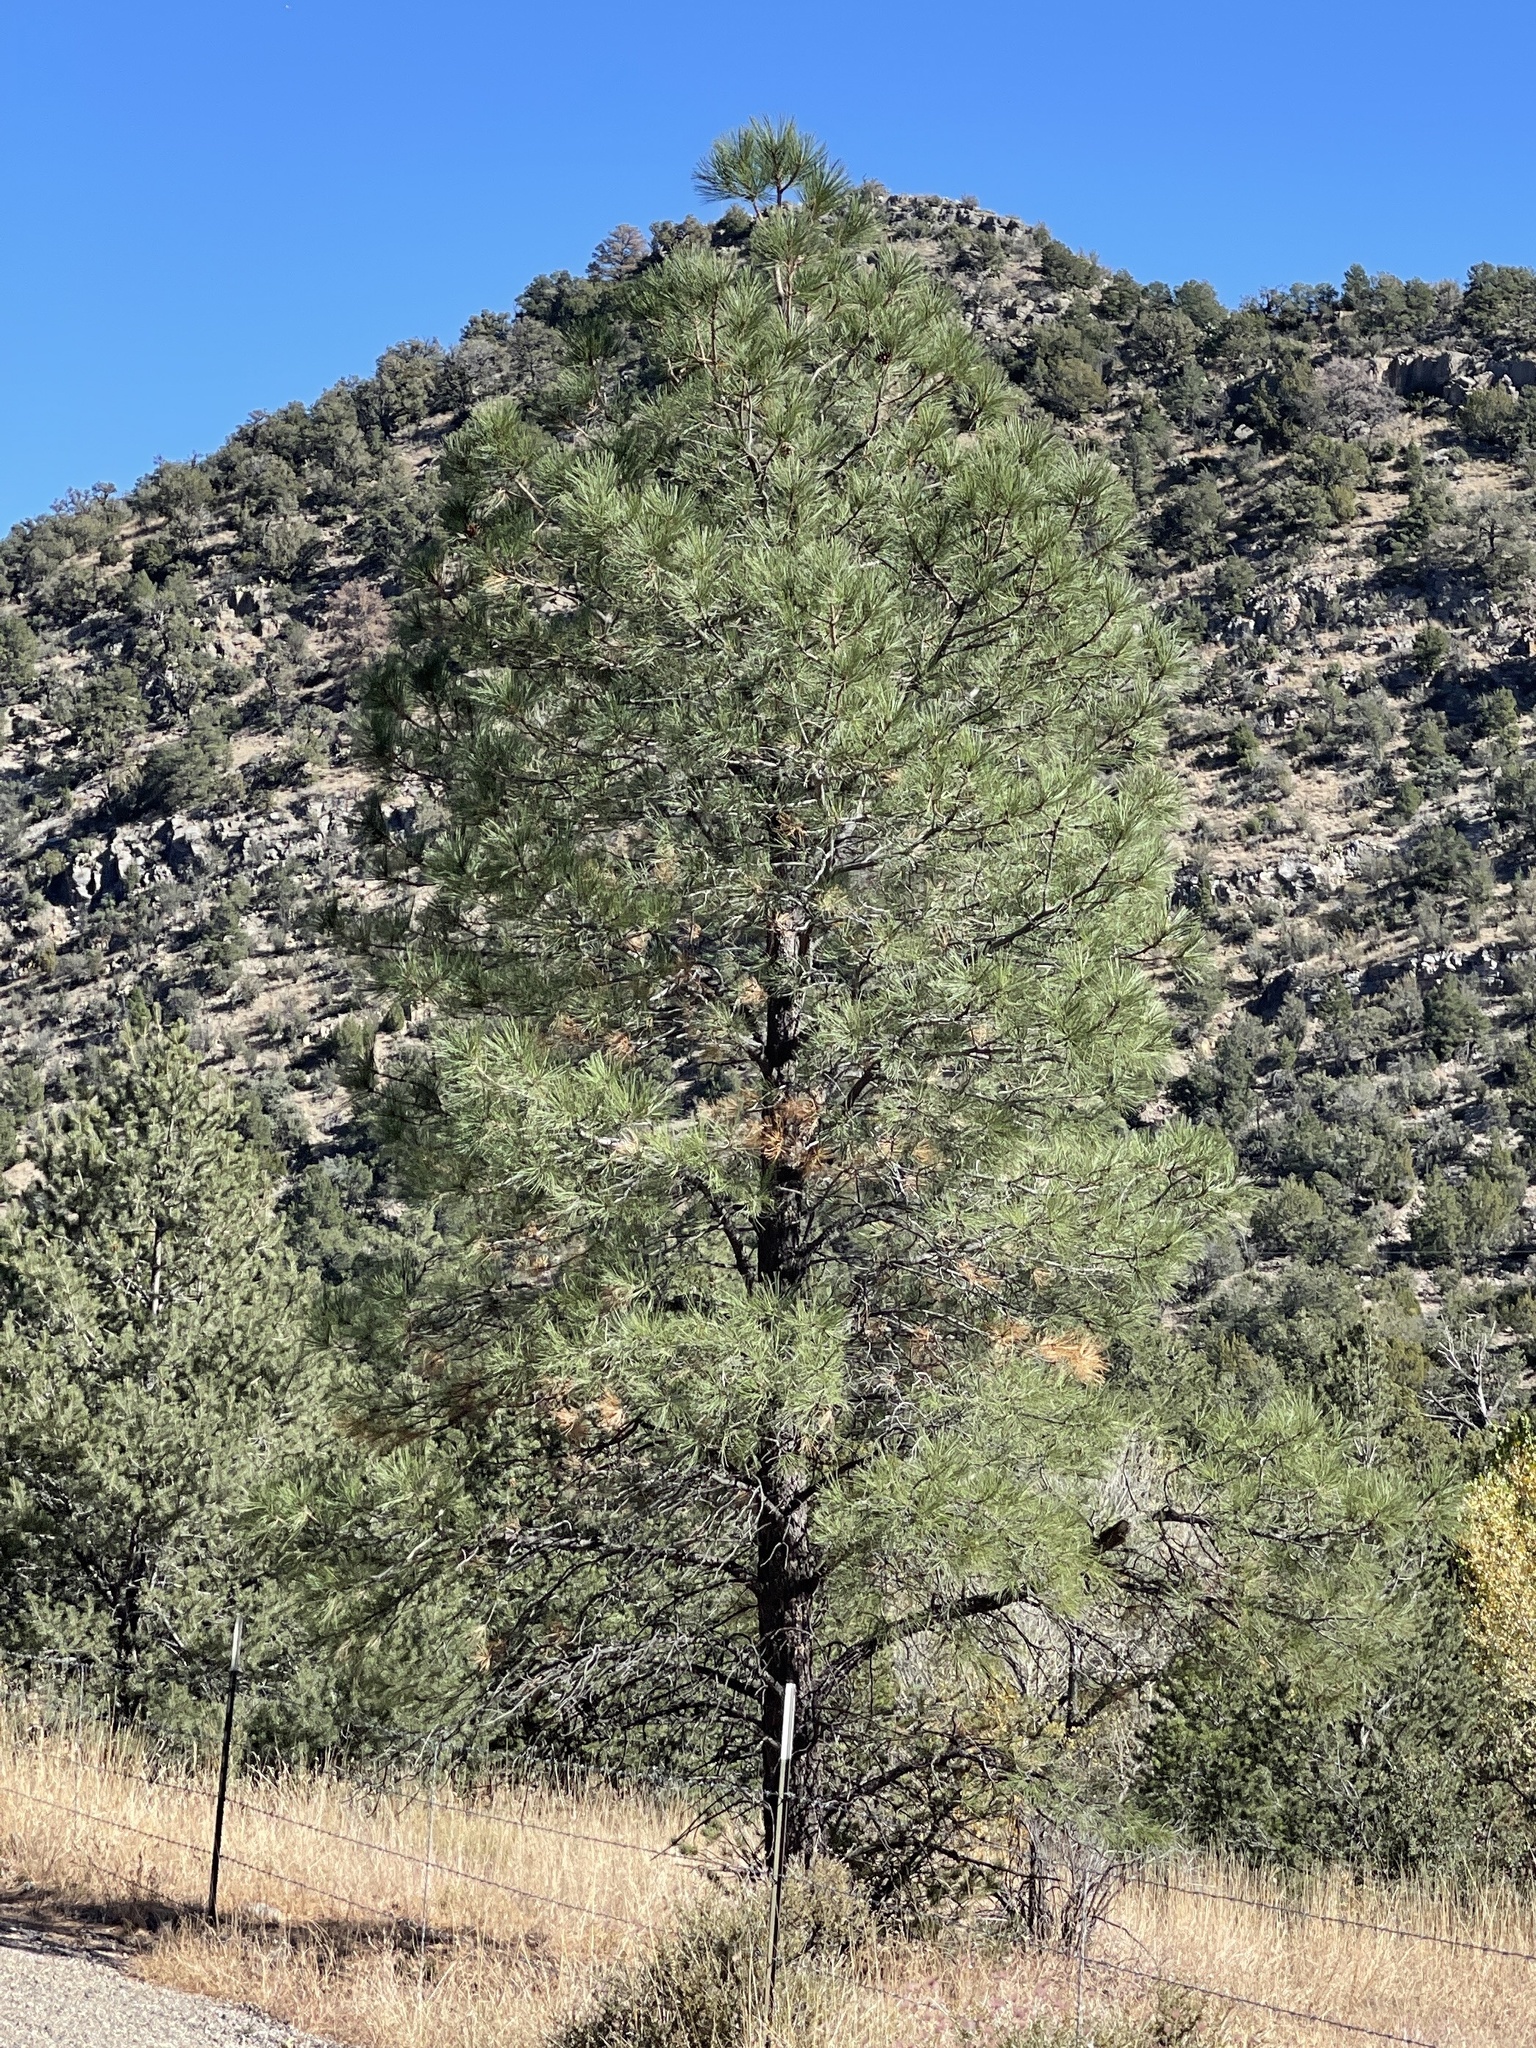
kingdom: Plantae
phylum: Tracheophyta
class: Pinopsida
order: Pinales
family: Pinaceae
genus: Pinus
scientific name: Pinus ponderosa
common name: Western yellow-pine
